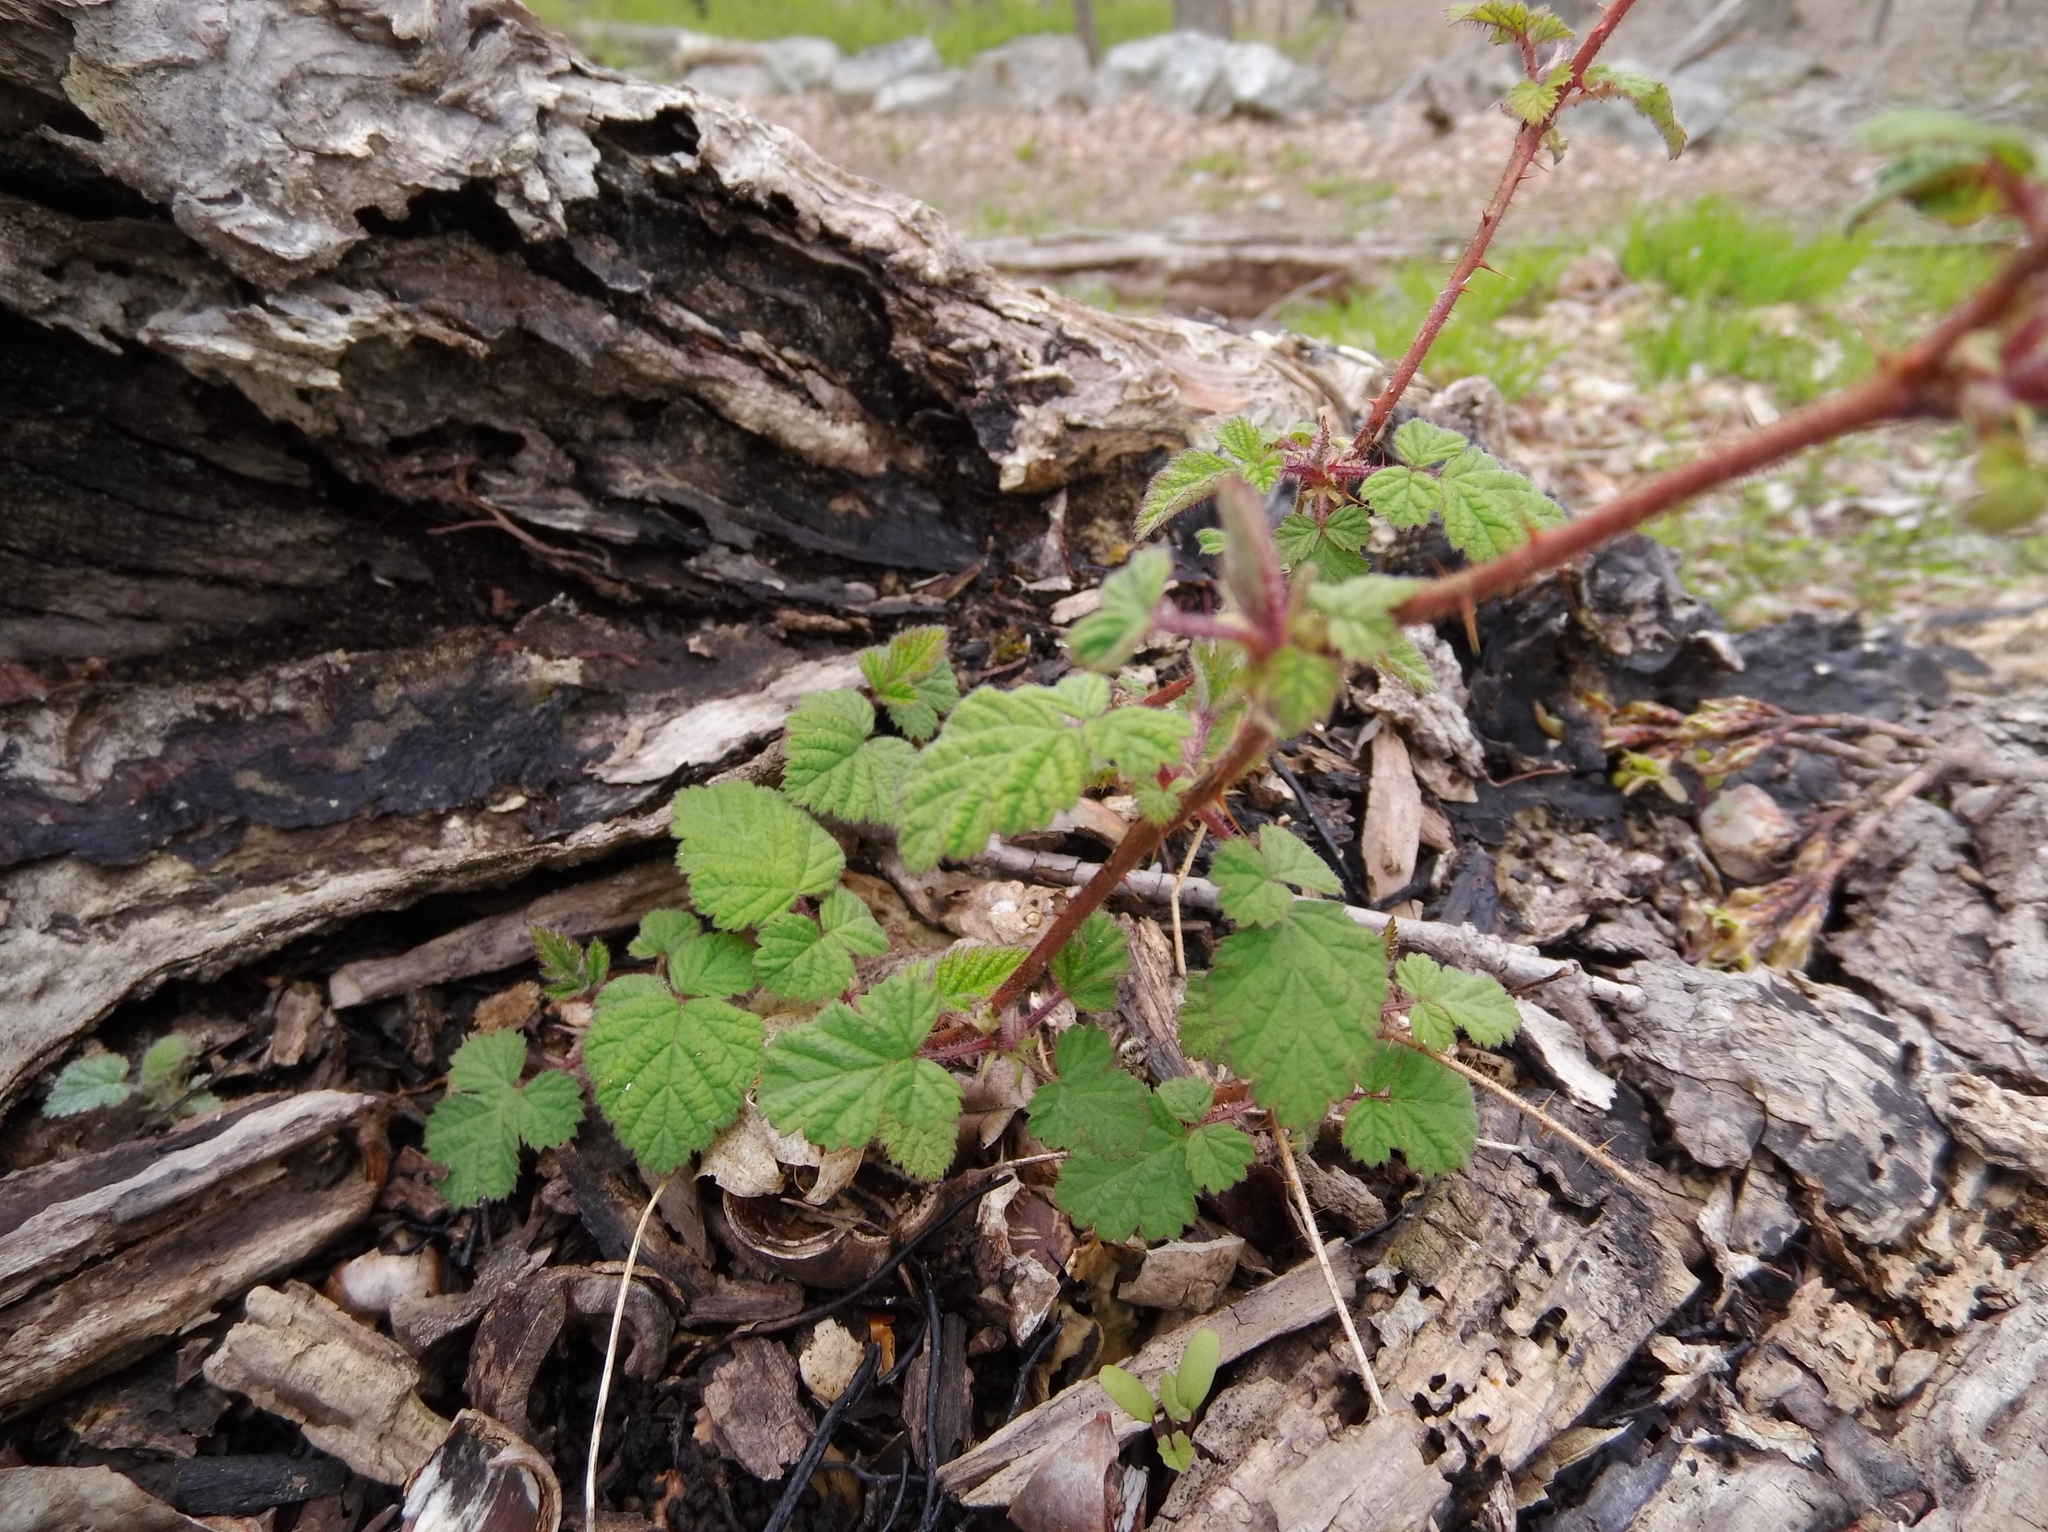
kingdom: Plantae
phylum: Tracheophyta
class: Magnoliopsida
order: Rosales
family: Rosaceae
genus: Rubus
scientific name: Rubus phoenicolasius
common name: Japanese wineberry
